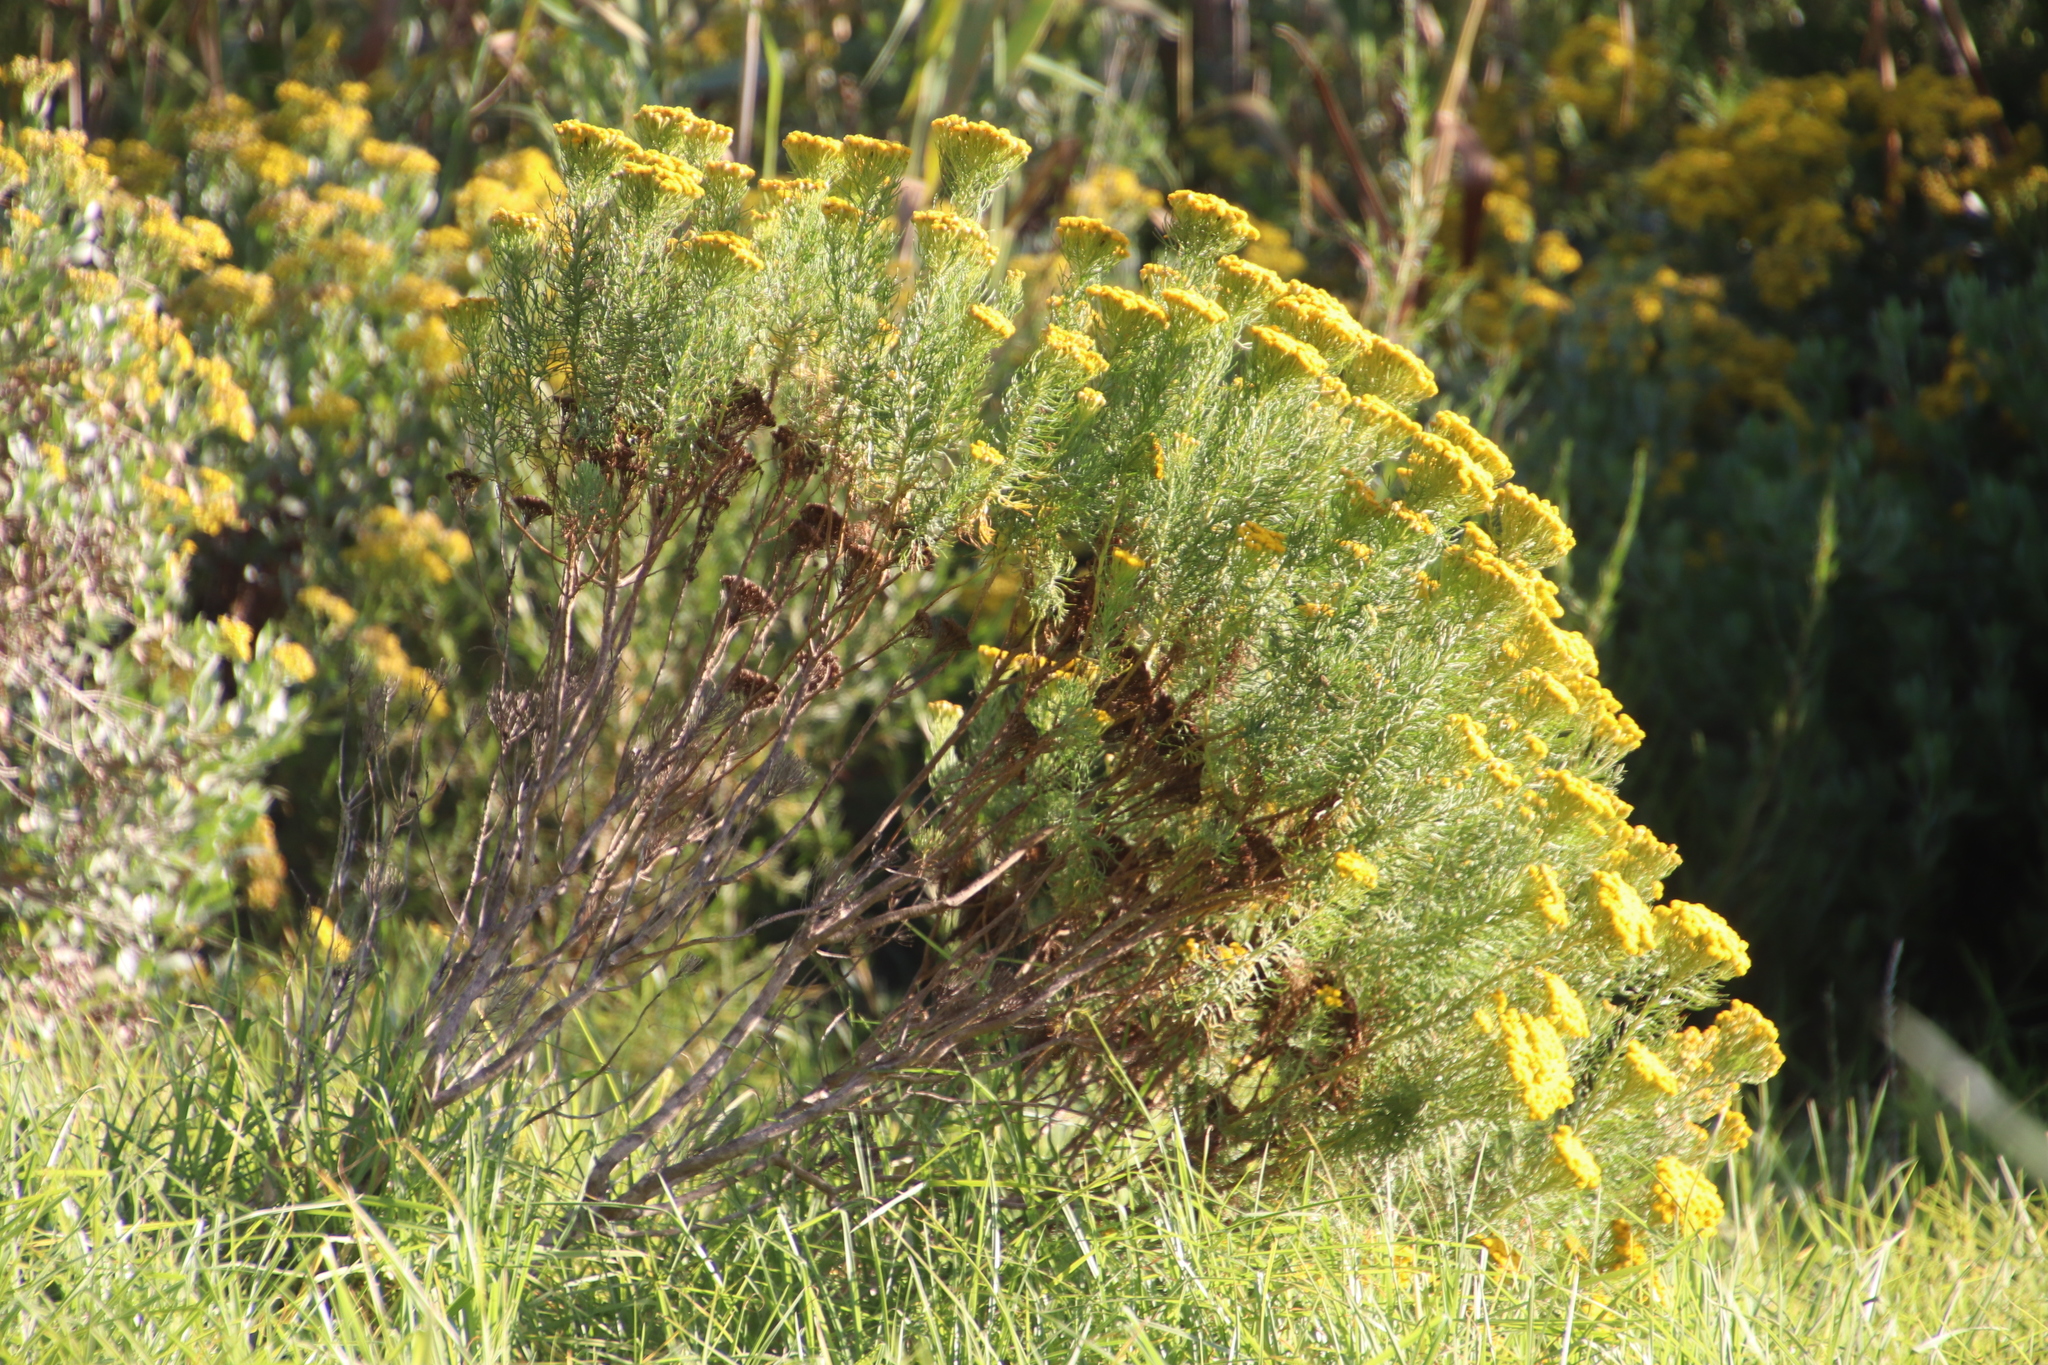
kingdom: Plantae
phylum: Tracheophyta
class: Magnoliopsida
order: Asterales
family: Asteraceae
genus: Athanasia
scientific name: Athanasia crithmifolia
